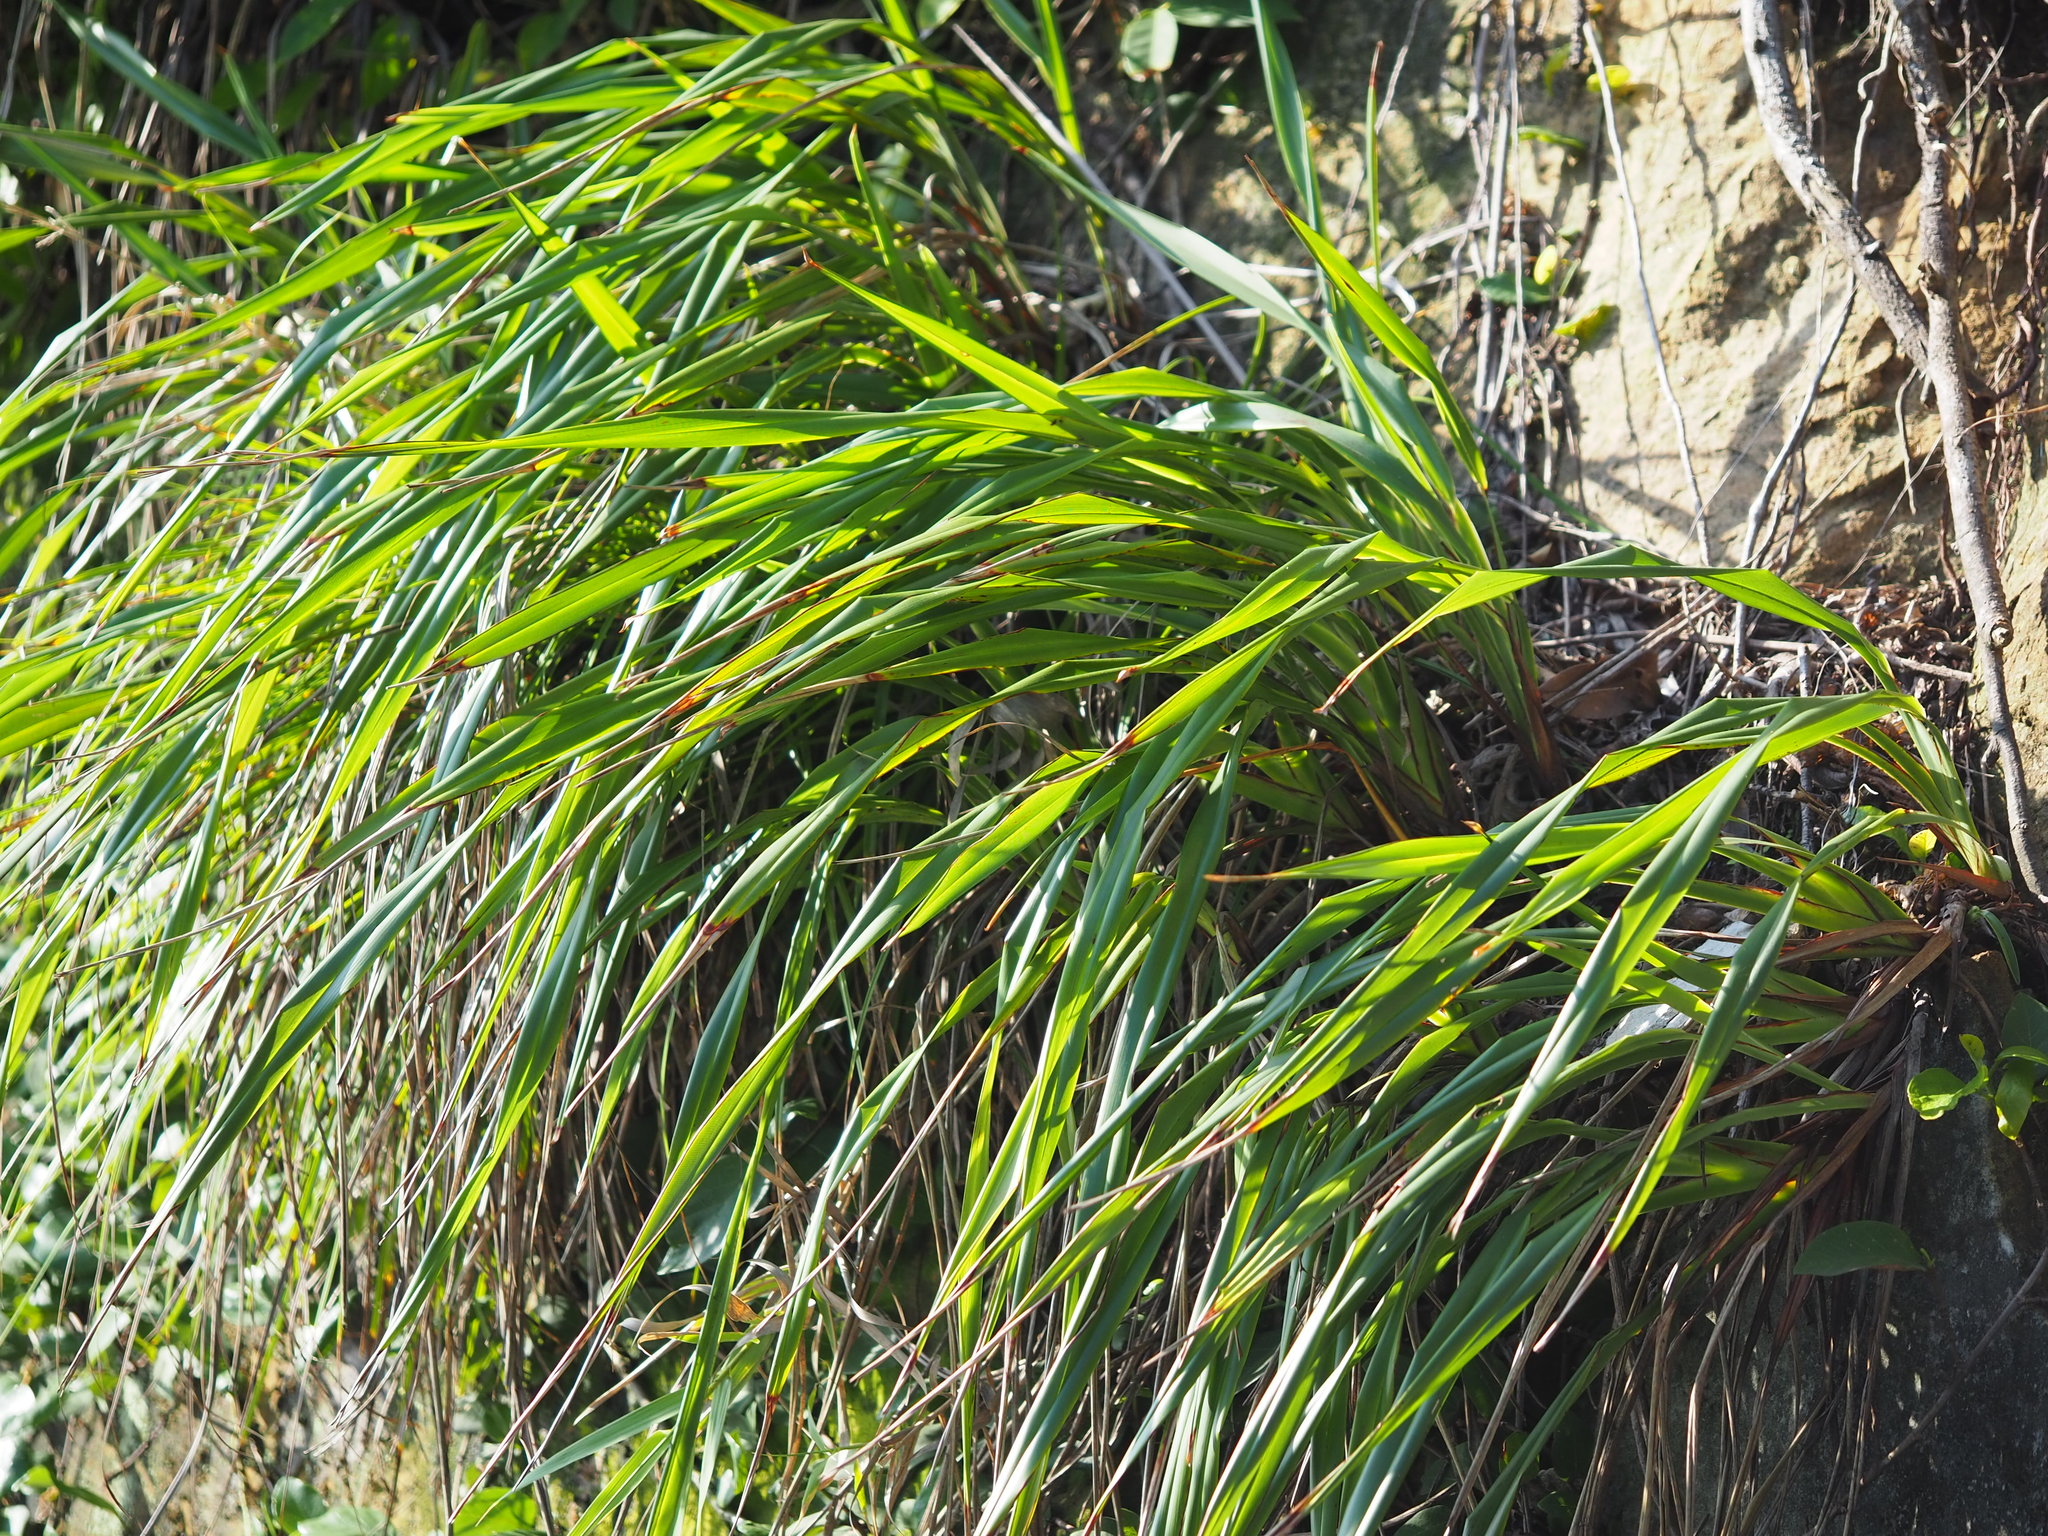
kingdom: Plantae
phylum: Tracheophyta
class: Liliopsida
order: Asparagales
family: Asphodelaceae
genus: Dianella
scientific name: Dianella ensifolia
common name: New zealand lilyplant
